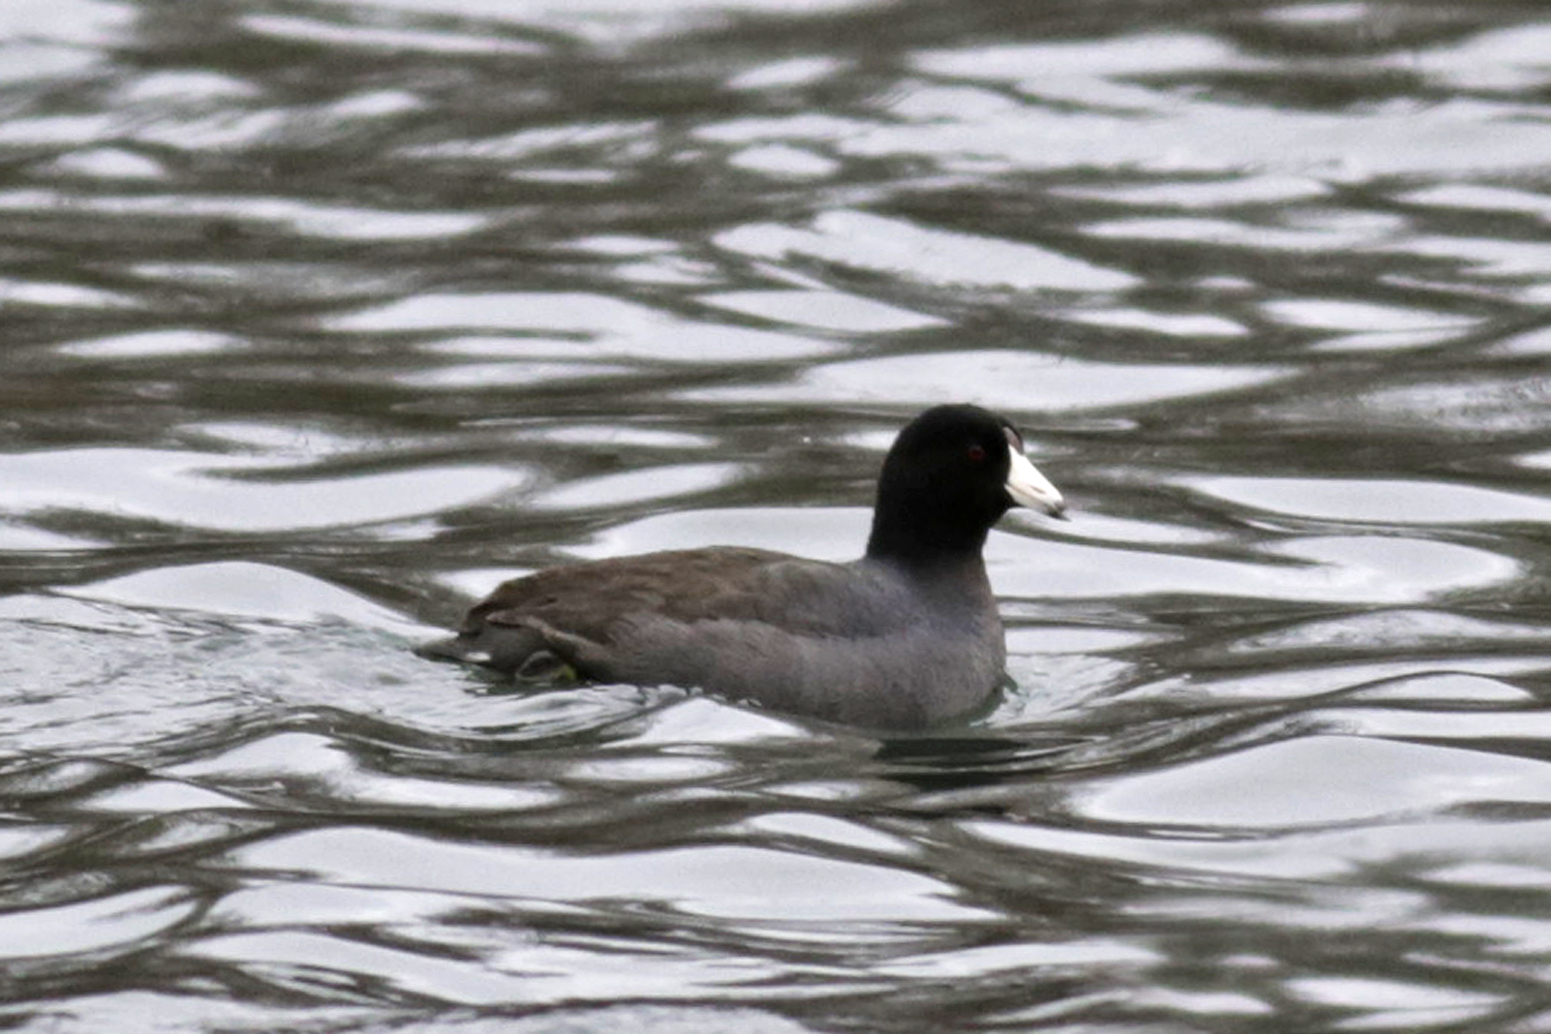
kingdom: Animalia
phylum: Chordata
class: Aves
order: Gruiformes
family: Rallidae
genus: Fulica
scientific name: Fulica americana
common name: American coot
